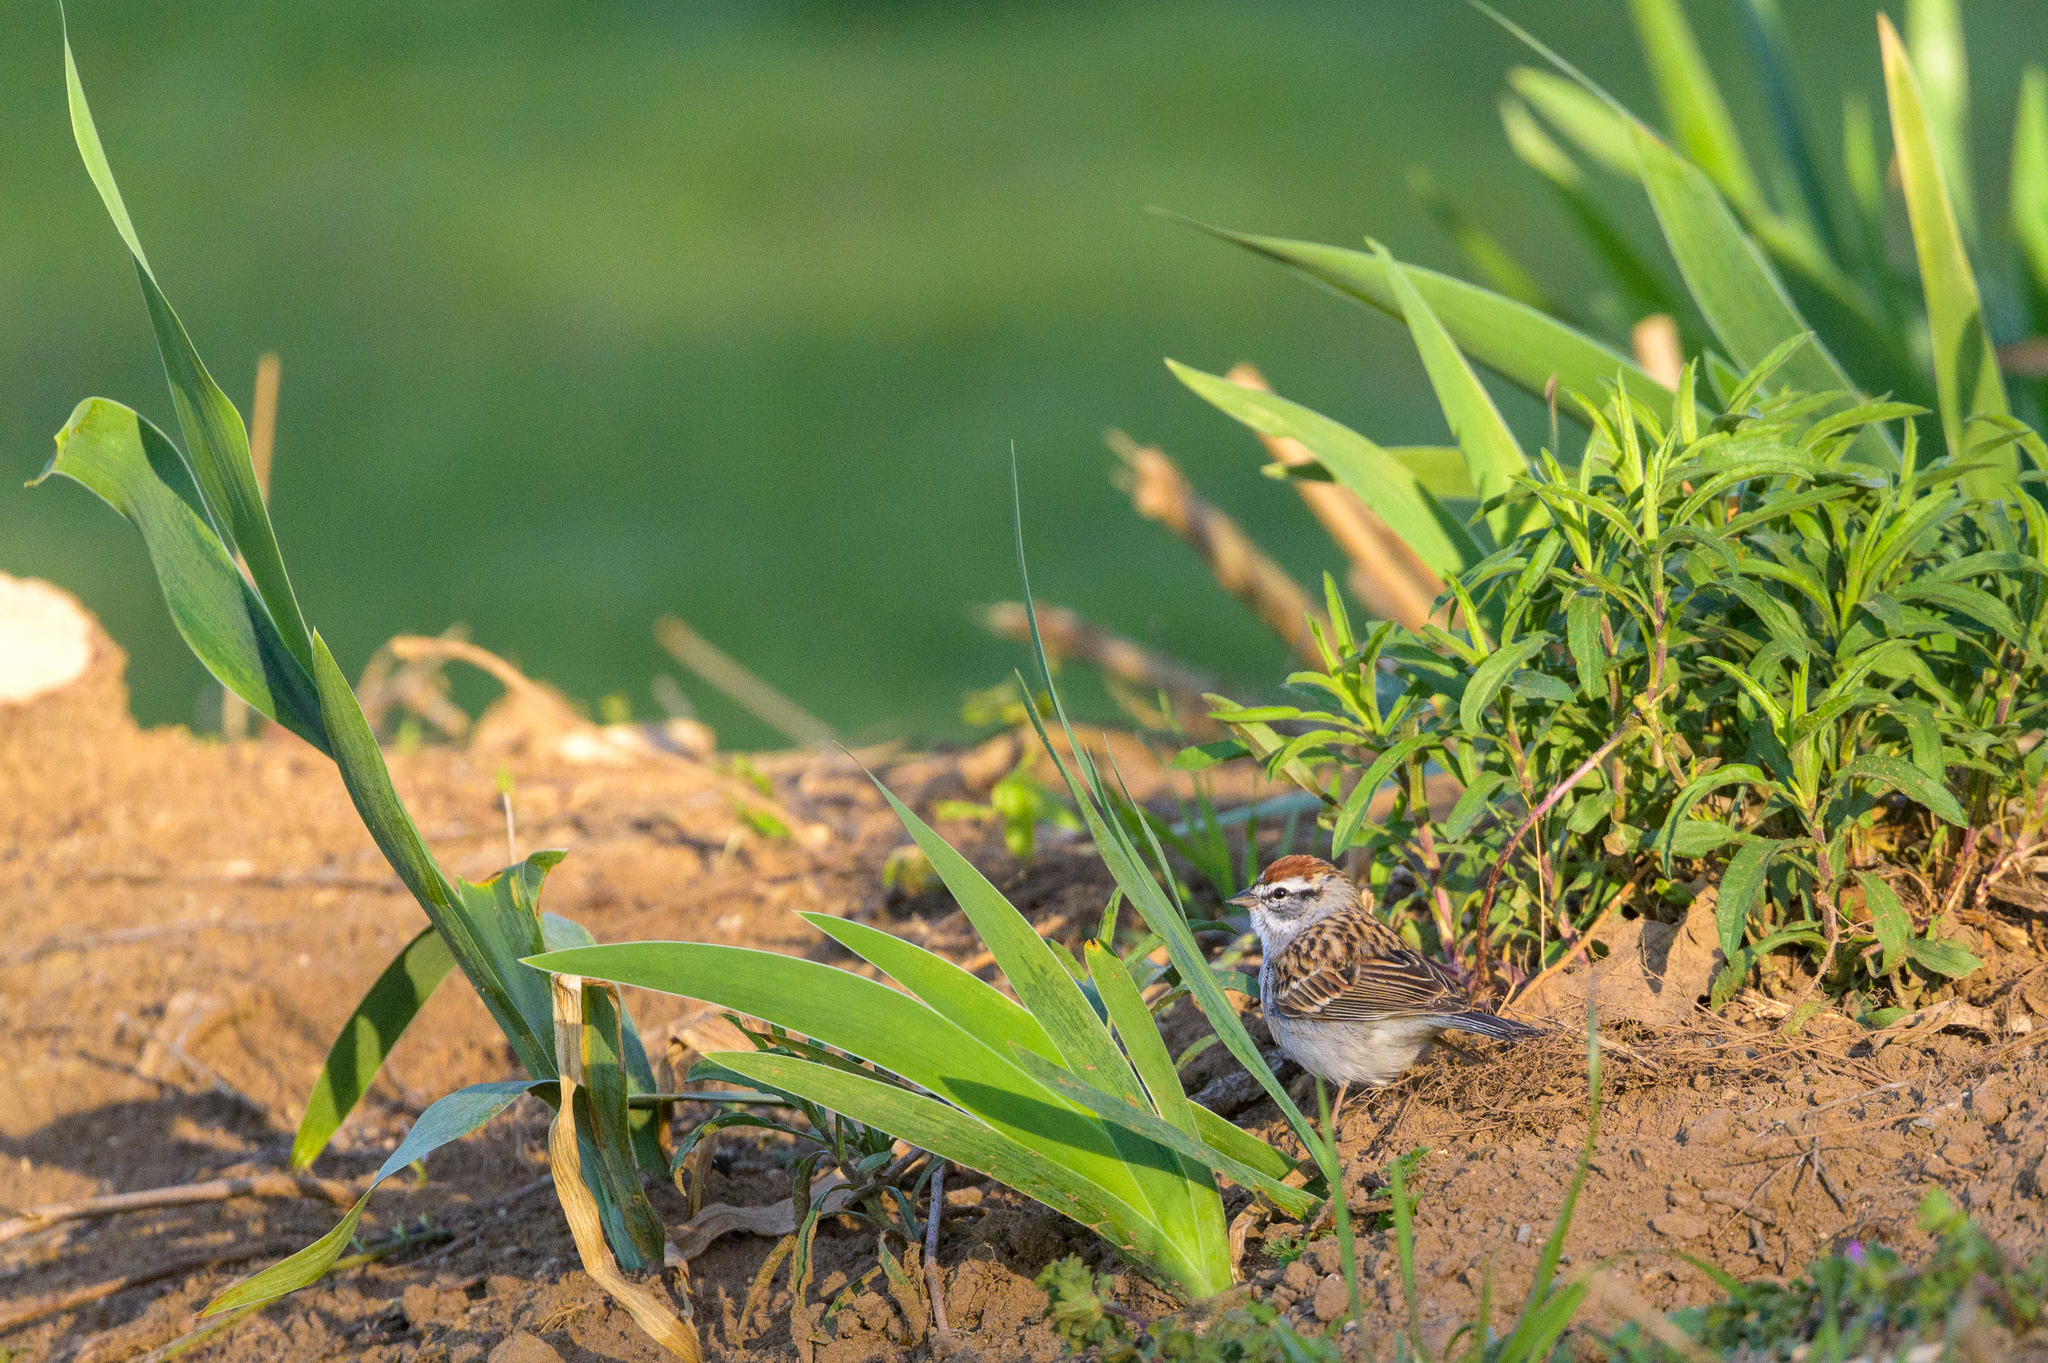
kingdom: Animalia
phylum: Chordata
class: Aves
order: Passeriformes
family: Passerellidae
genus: Spizella
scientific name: Spizella passerina
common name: Chipping sparrow
